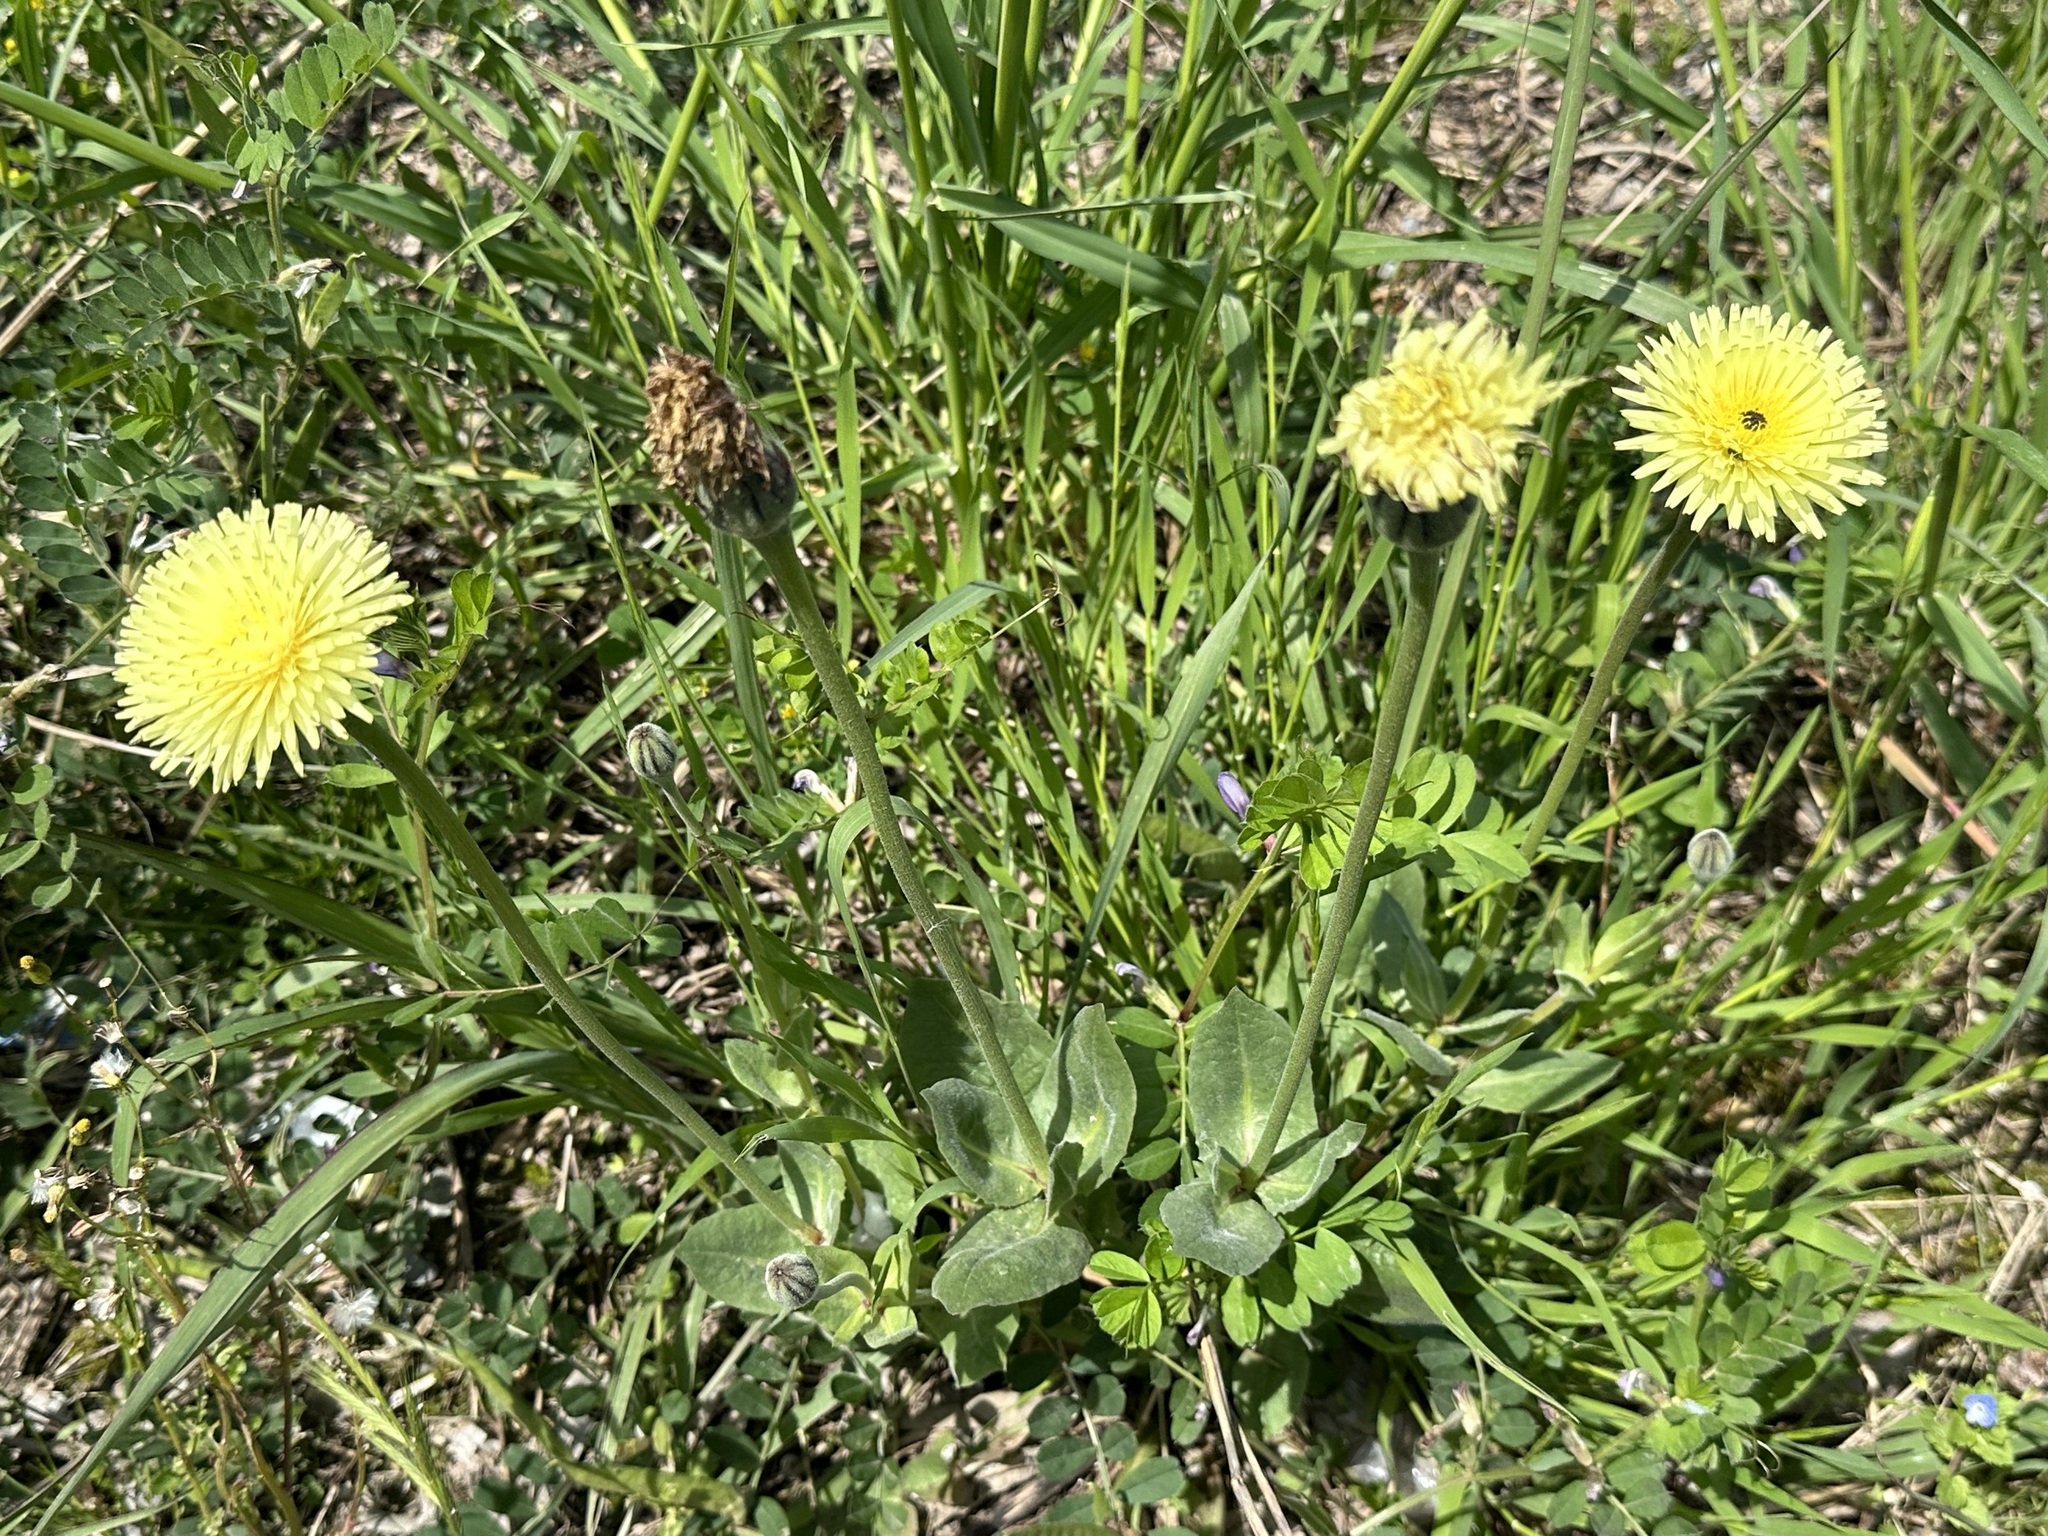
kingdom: Plantae
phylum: Tracheophyta
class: Magnoliopsida
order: Asterales
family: Asteraceae
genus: Urospermum
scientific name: Urospermum dalechampii
